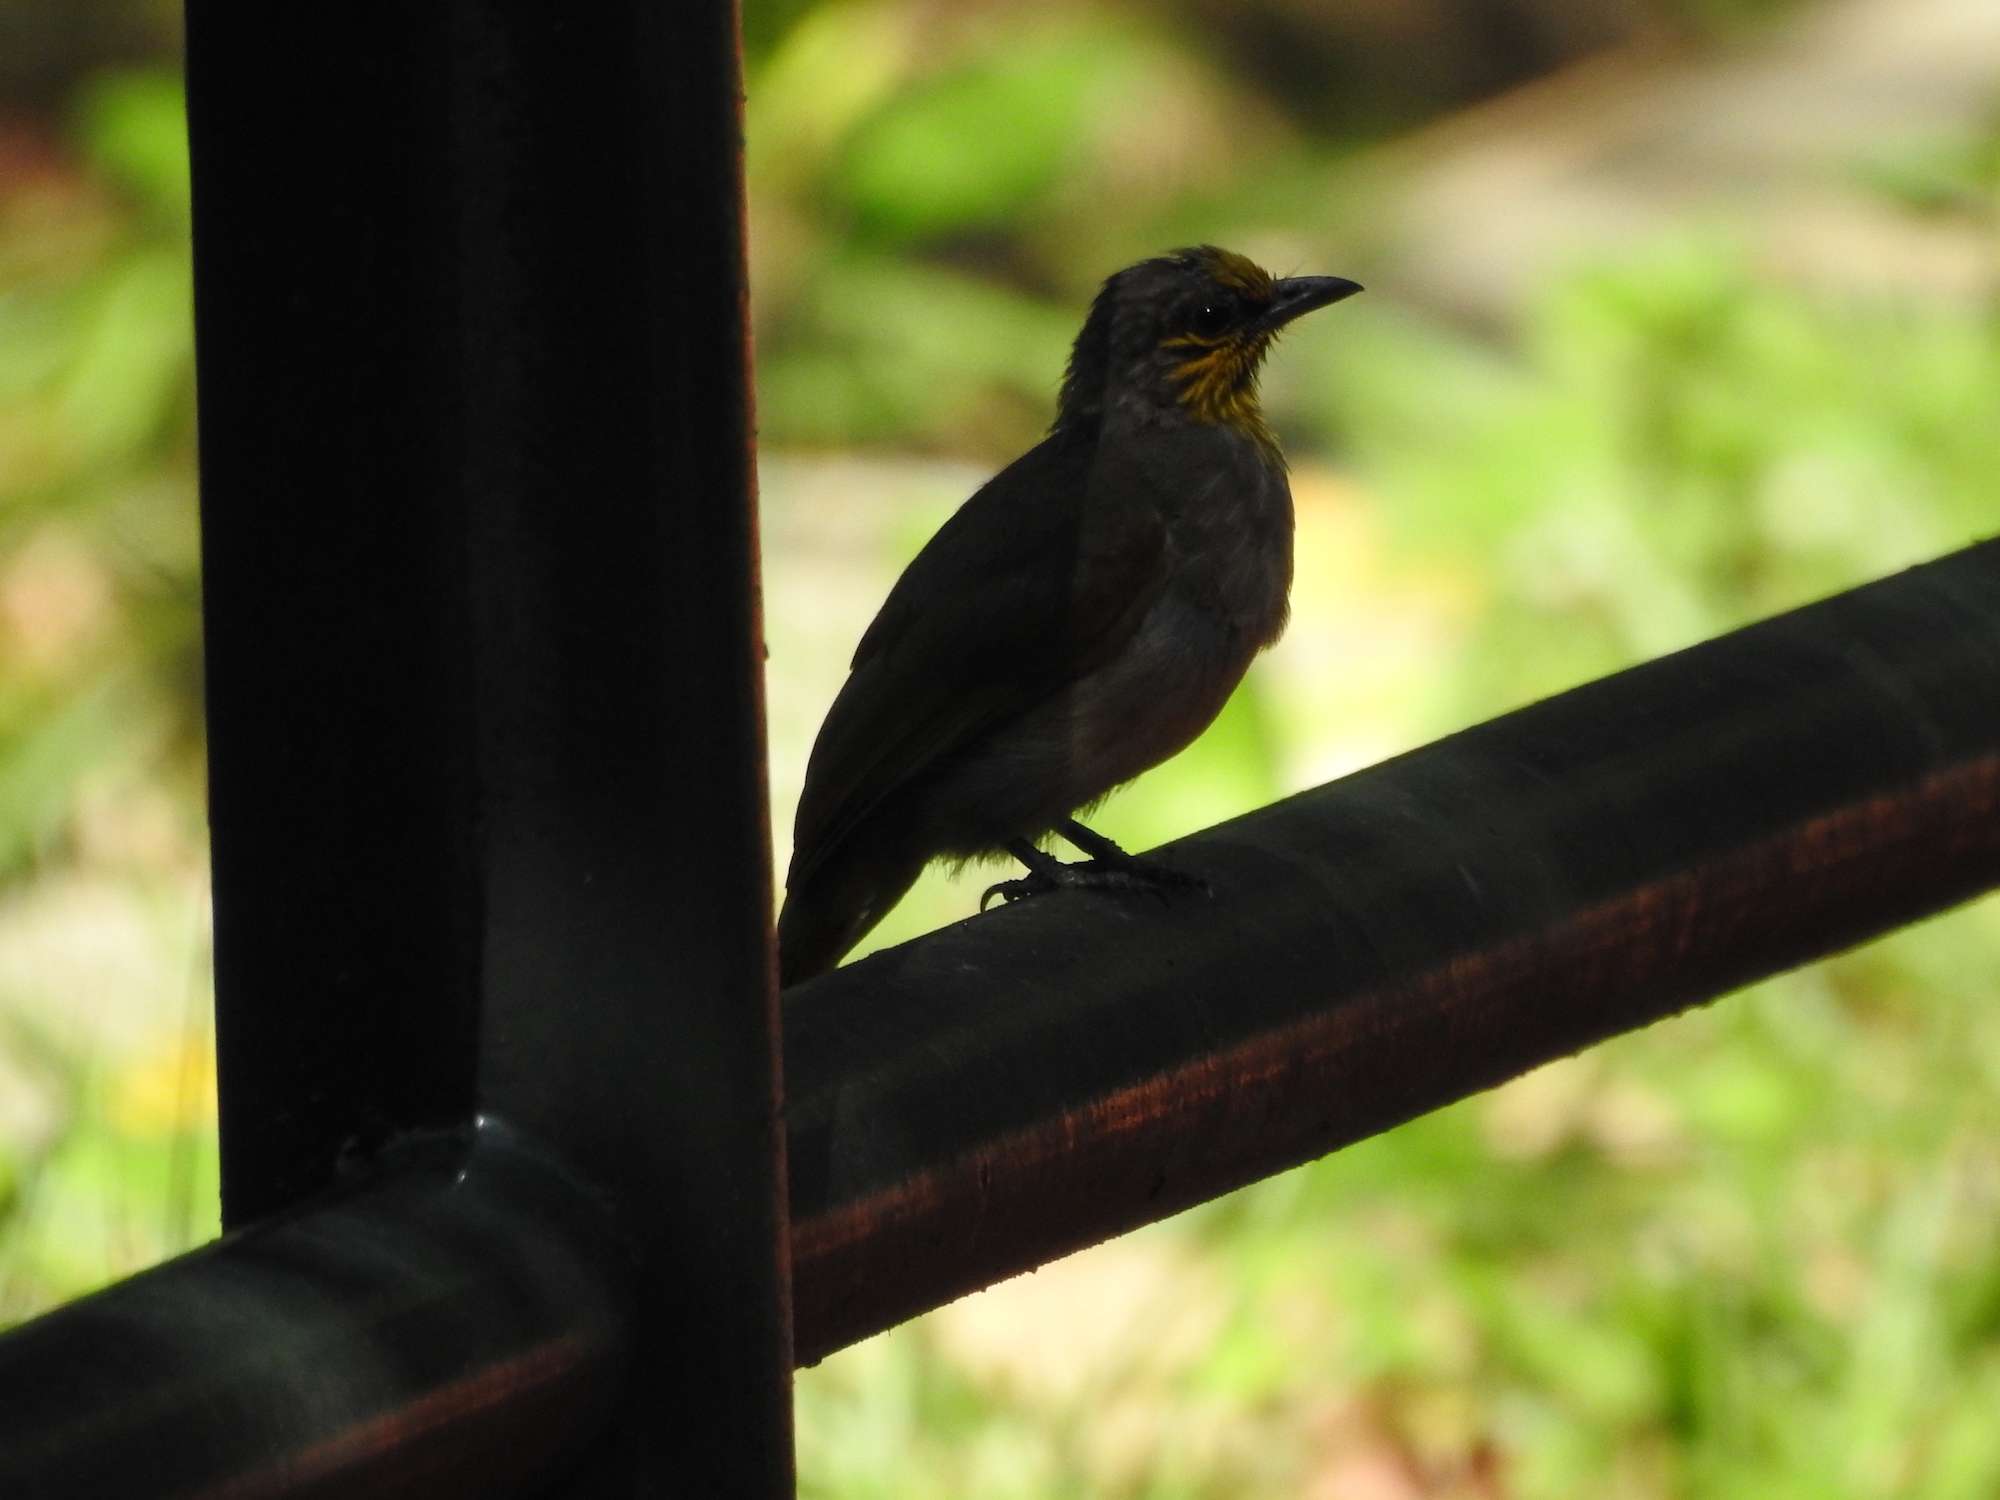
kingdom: Animalia
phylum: Chordata
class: Aves
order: Passeriformes
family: Pycnonotidae
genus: Pycnonotus
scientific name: Pycnonotus finlaysoni
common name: Stripe-throated bulbul
